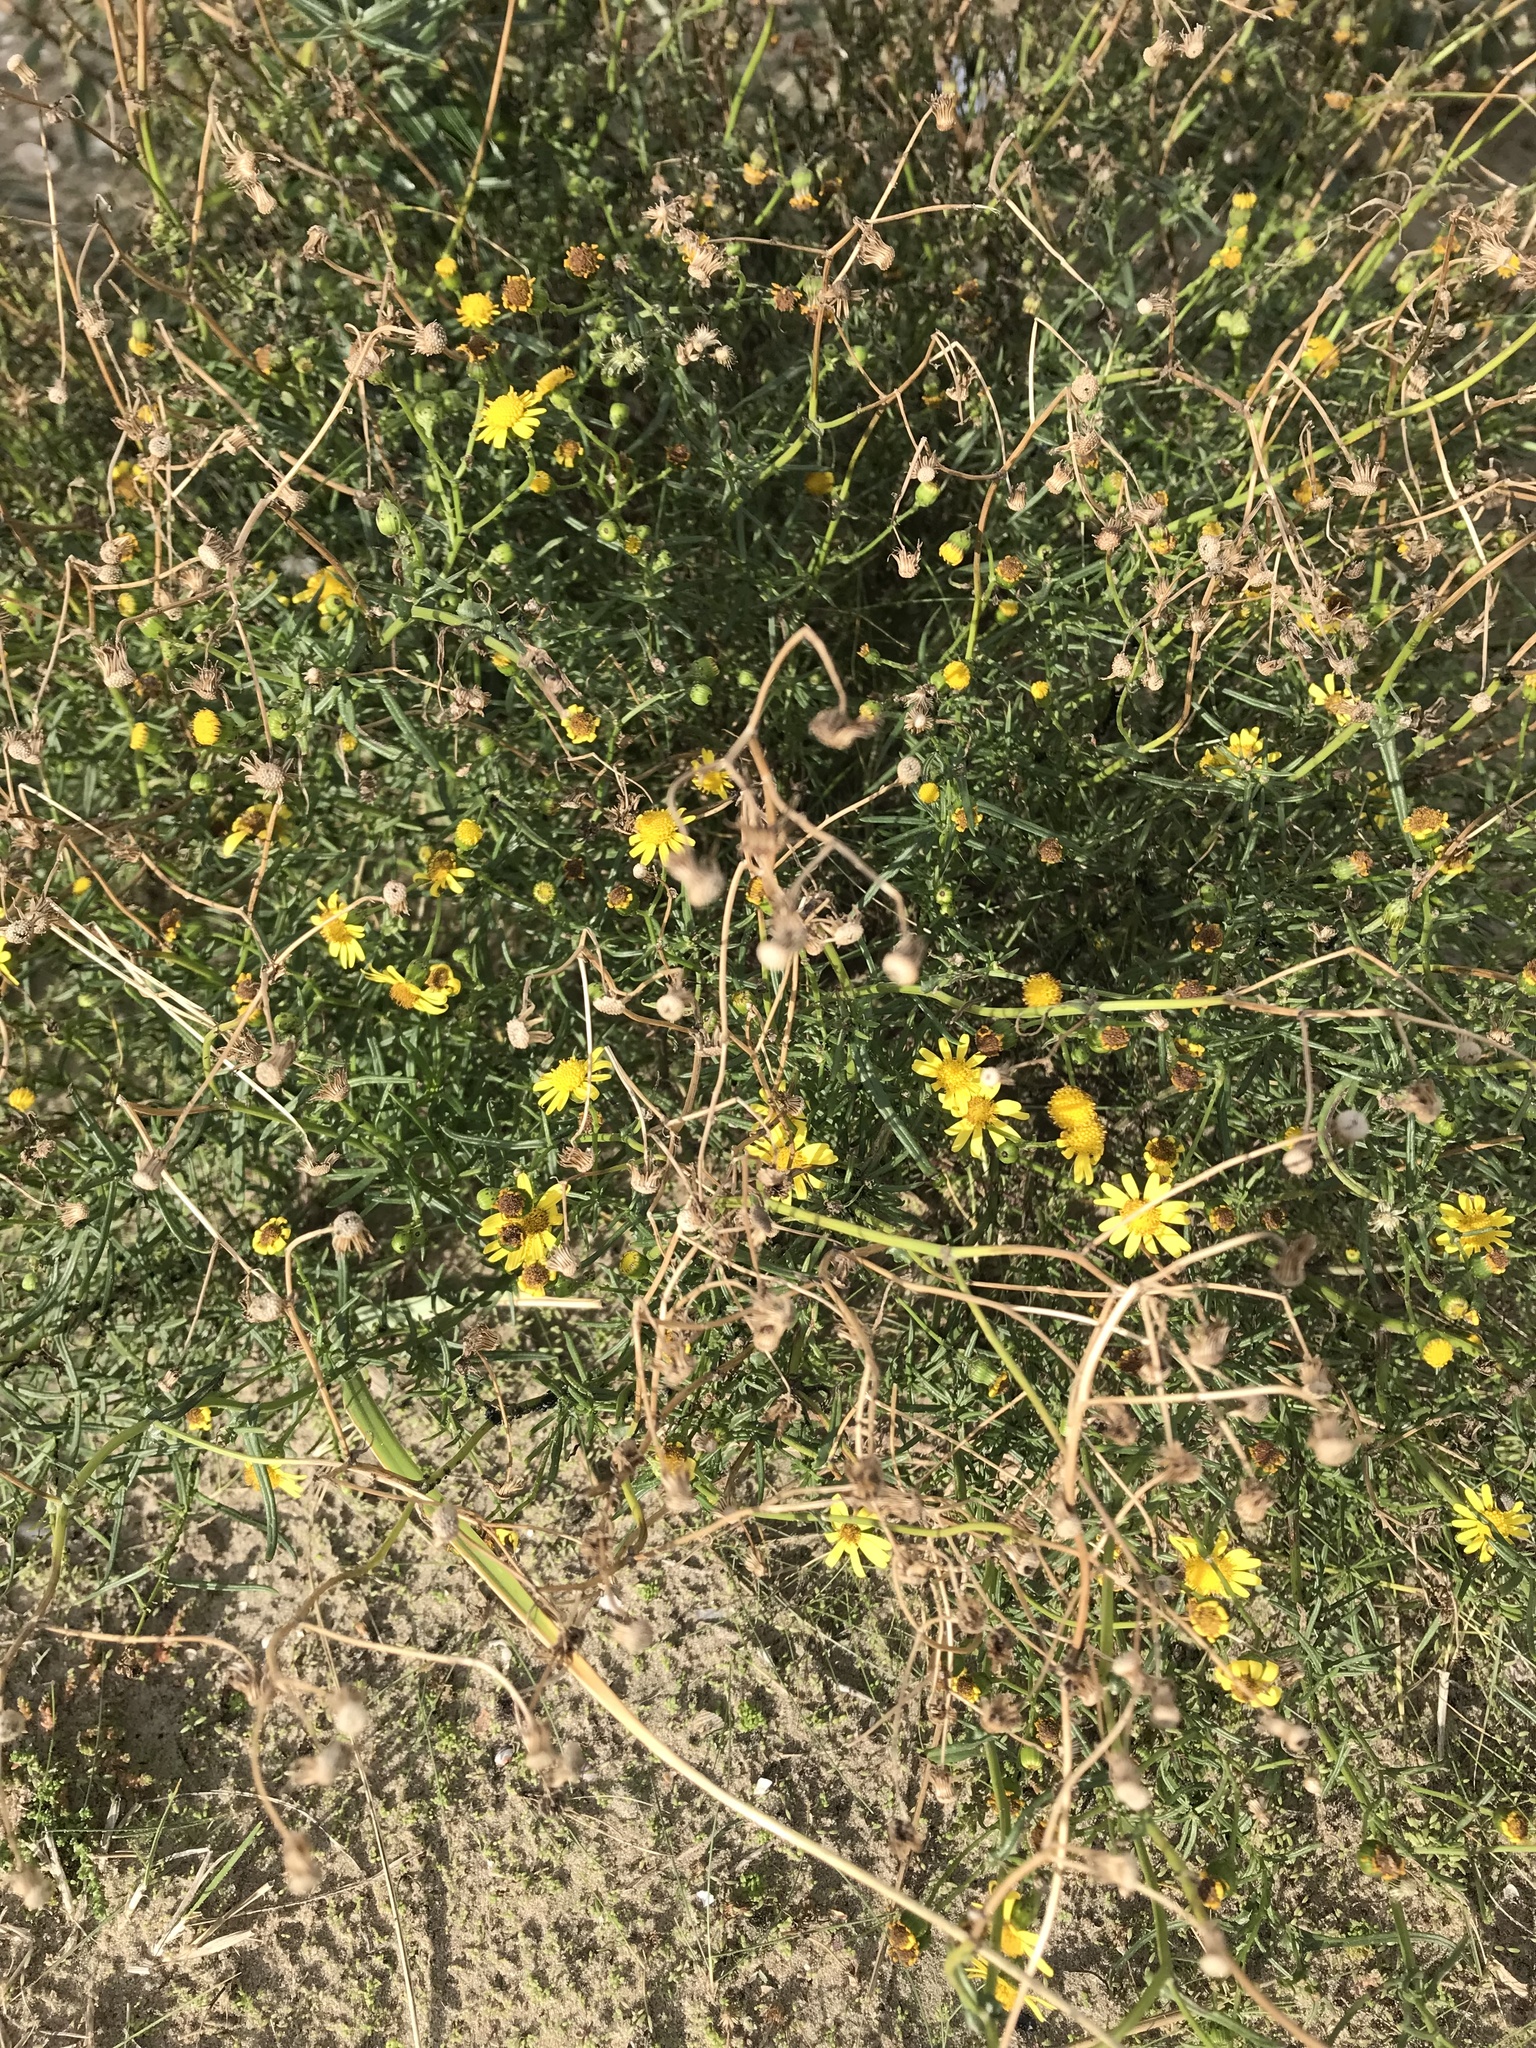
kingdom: Plantae
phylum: Tracheophyta
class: Magnoliopsida
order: Asterales
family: Asteraceae
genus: Senecio
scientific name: Senecio inaequidens
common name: Narrow-leaved ragwort
